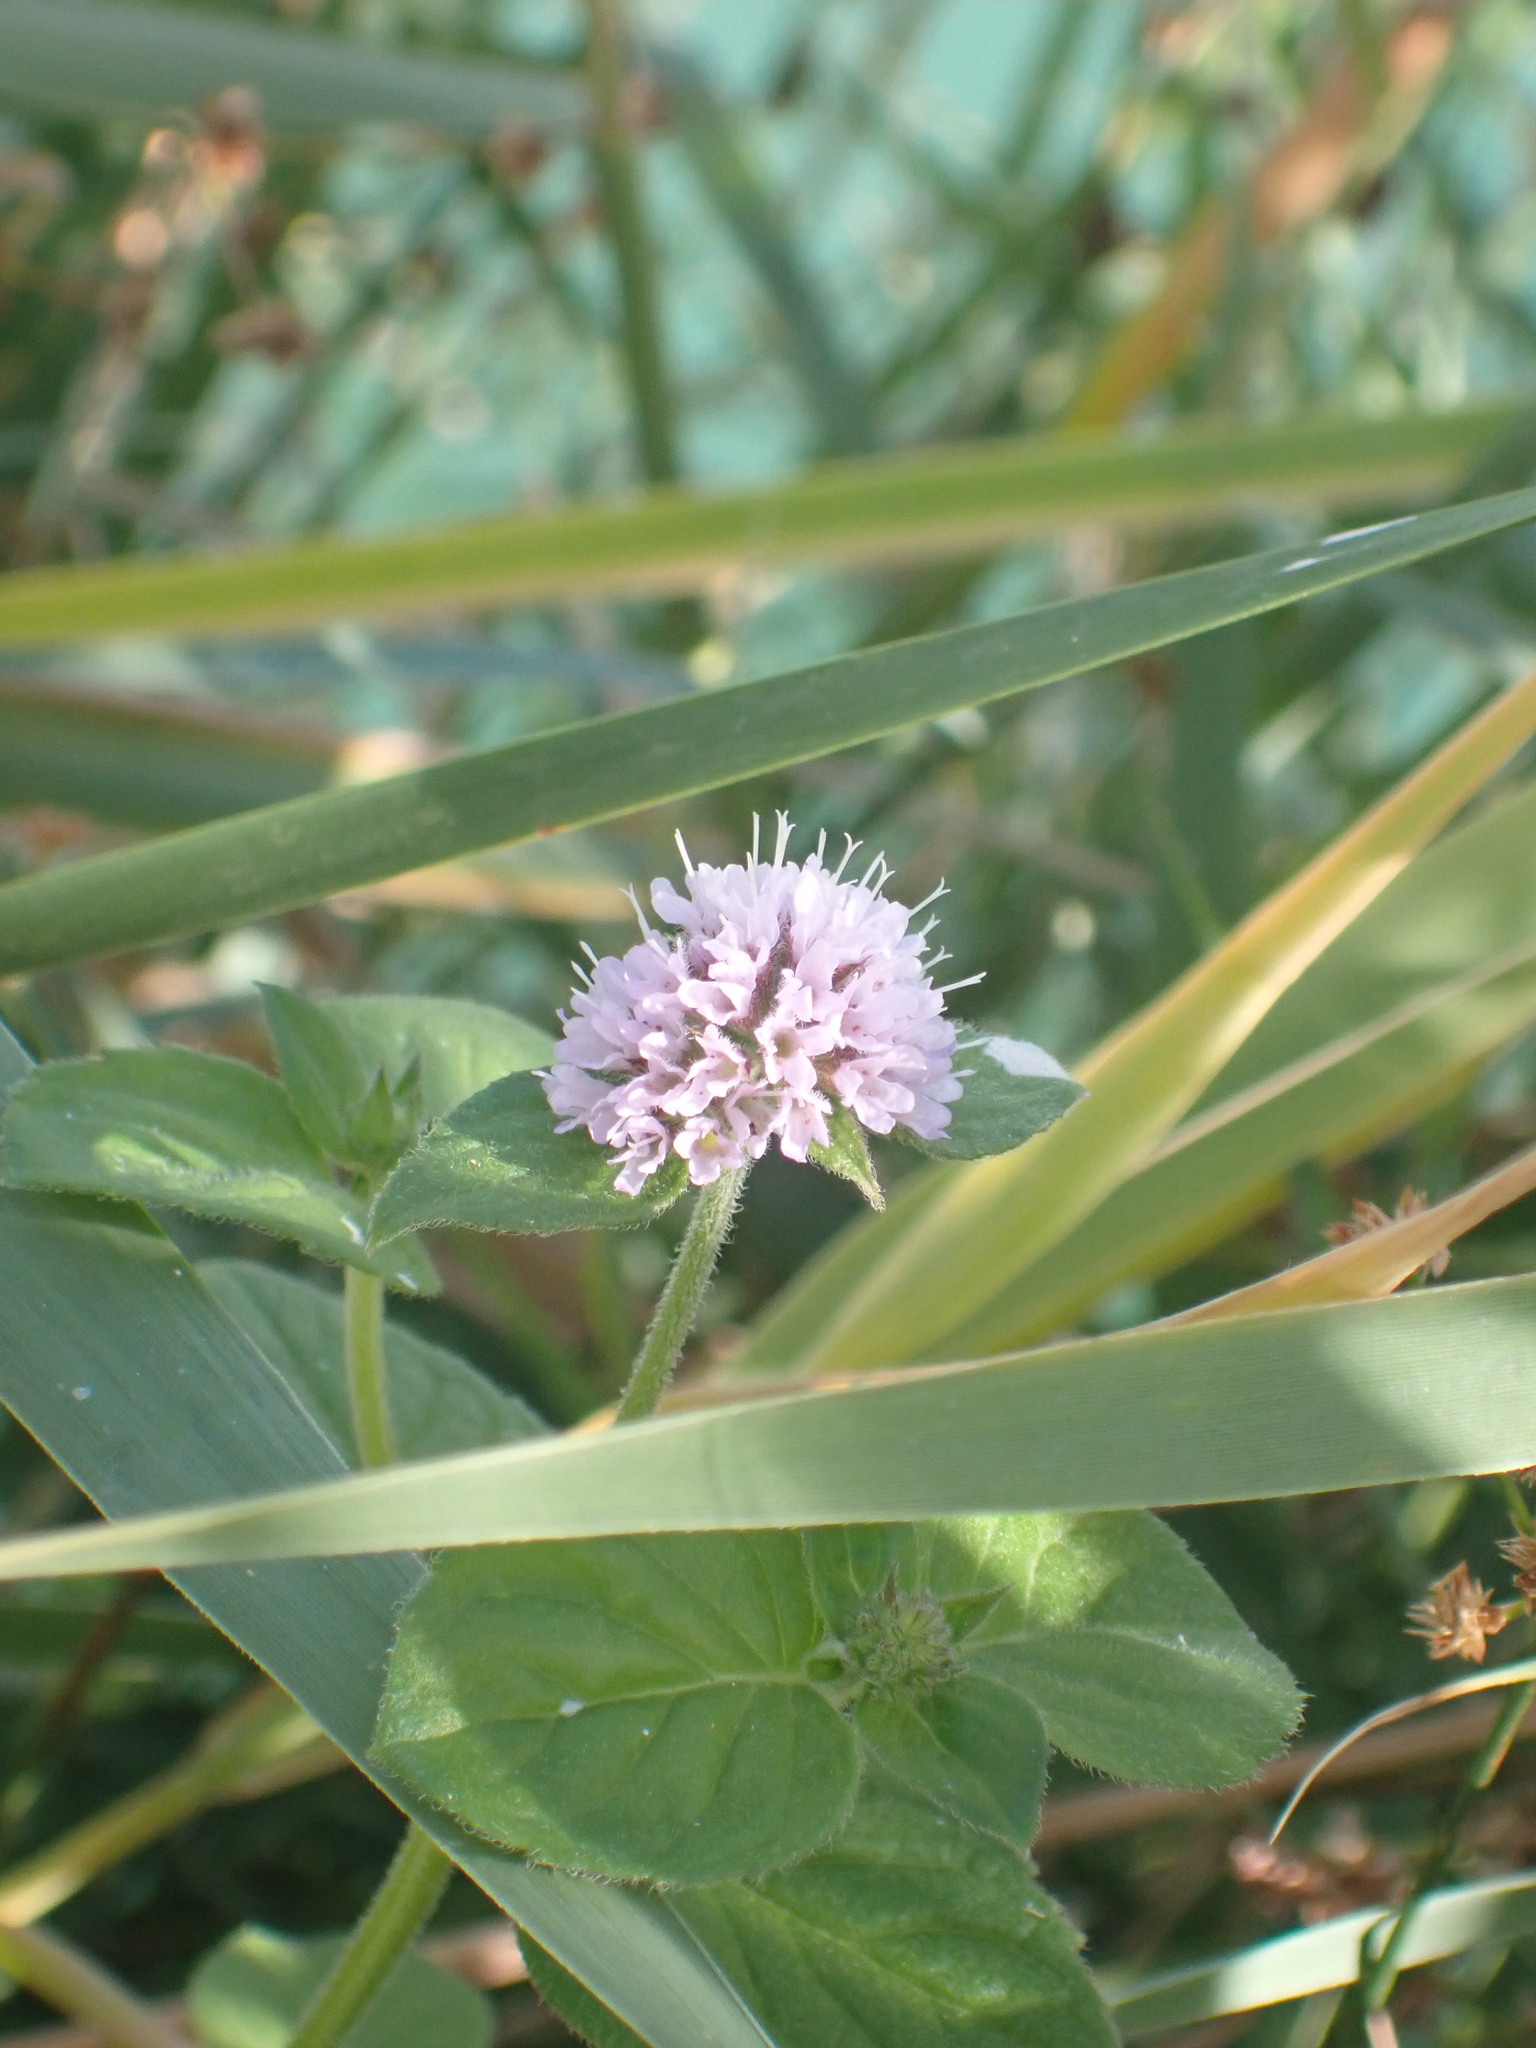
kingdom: Plantae
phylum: Tracheophyta
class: Magnoliopsida
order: Lamiales
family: Lamiaceae
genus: Mentha
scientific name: Mentha aquatica
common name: Water mint
